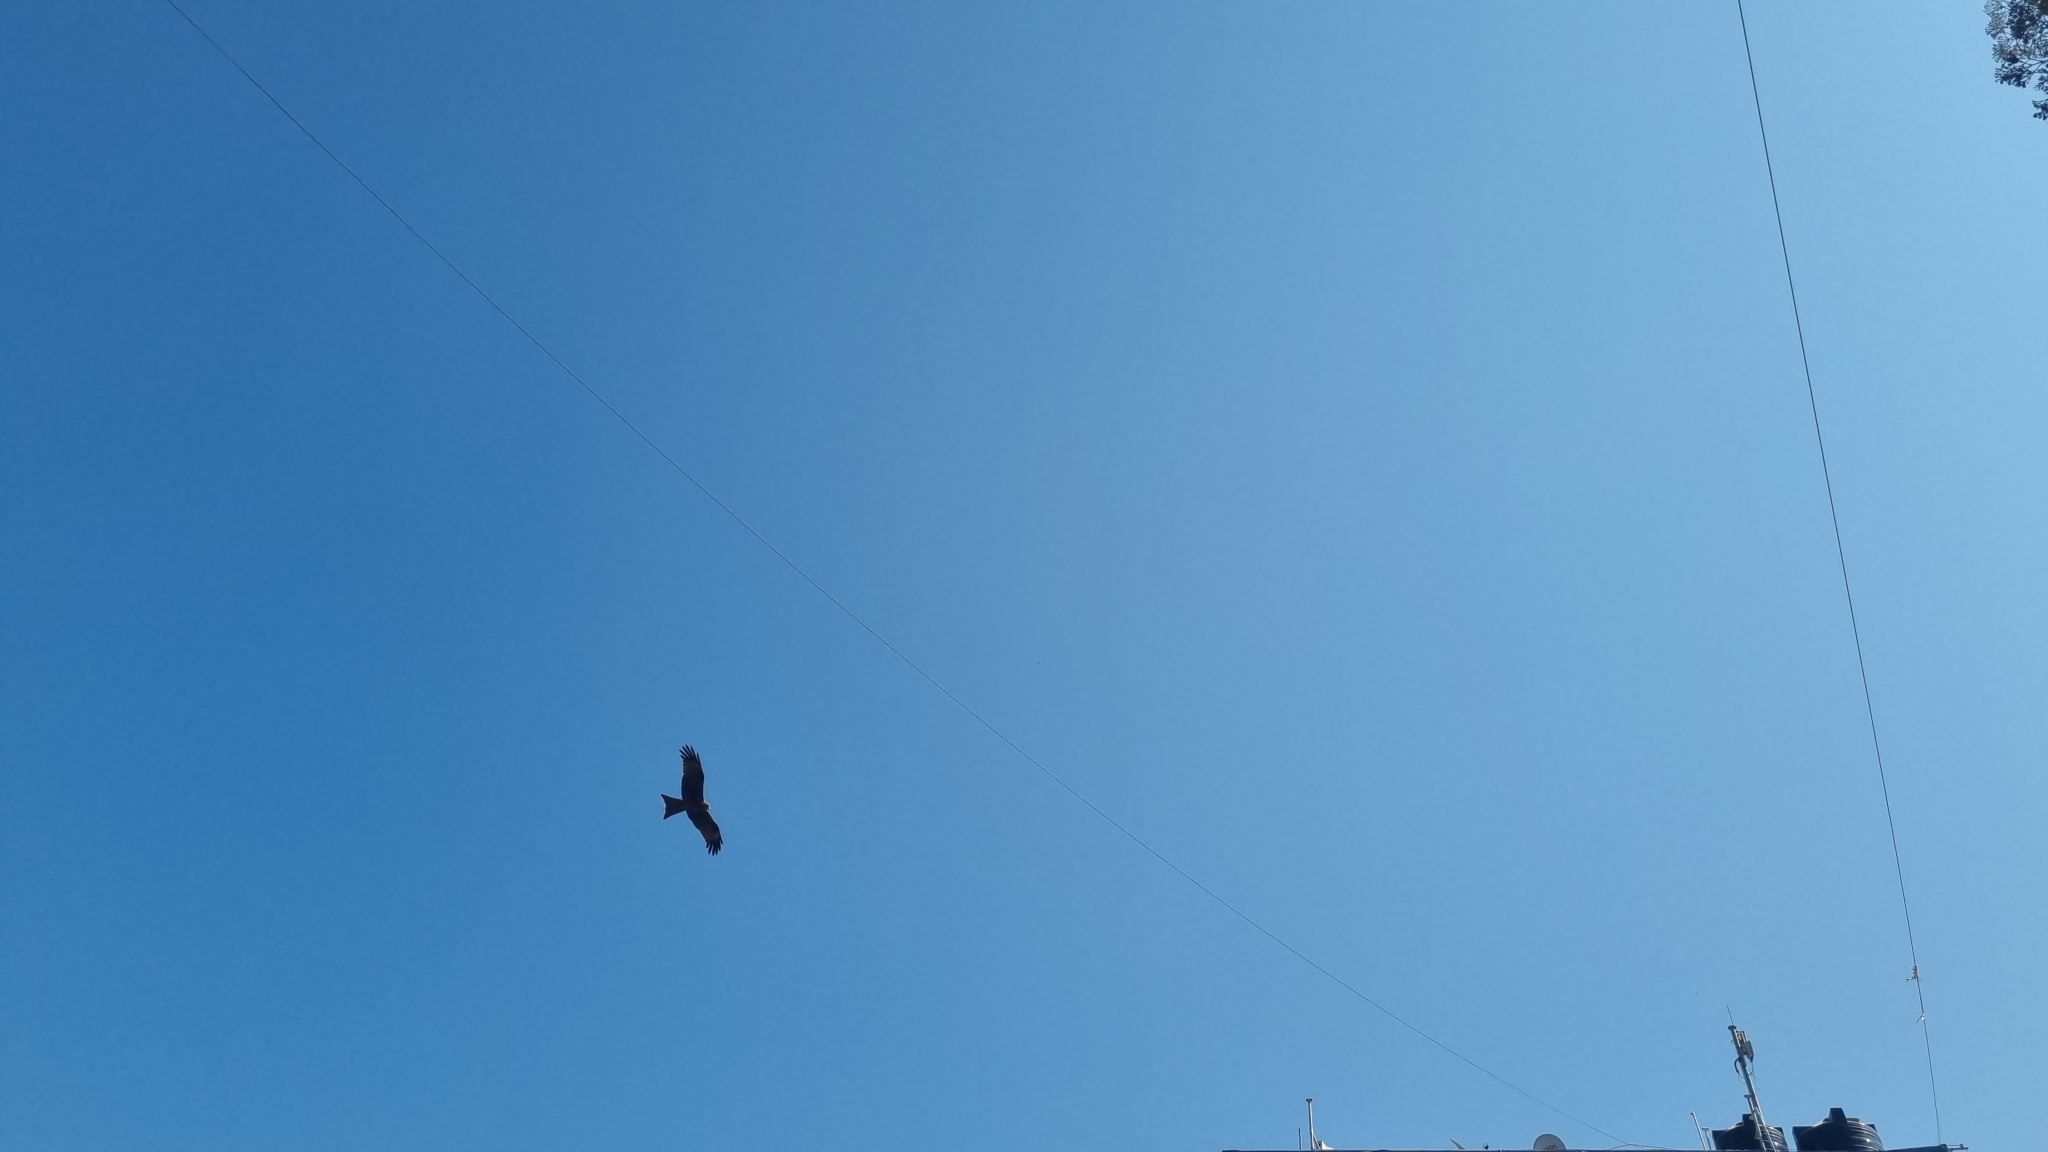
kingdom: Animalia
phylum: Chordata
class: Aves
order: Accipitriformes
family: Accipitridae
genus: Milvus
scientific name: Milvus migrans
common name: Black kite
